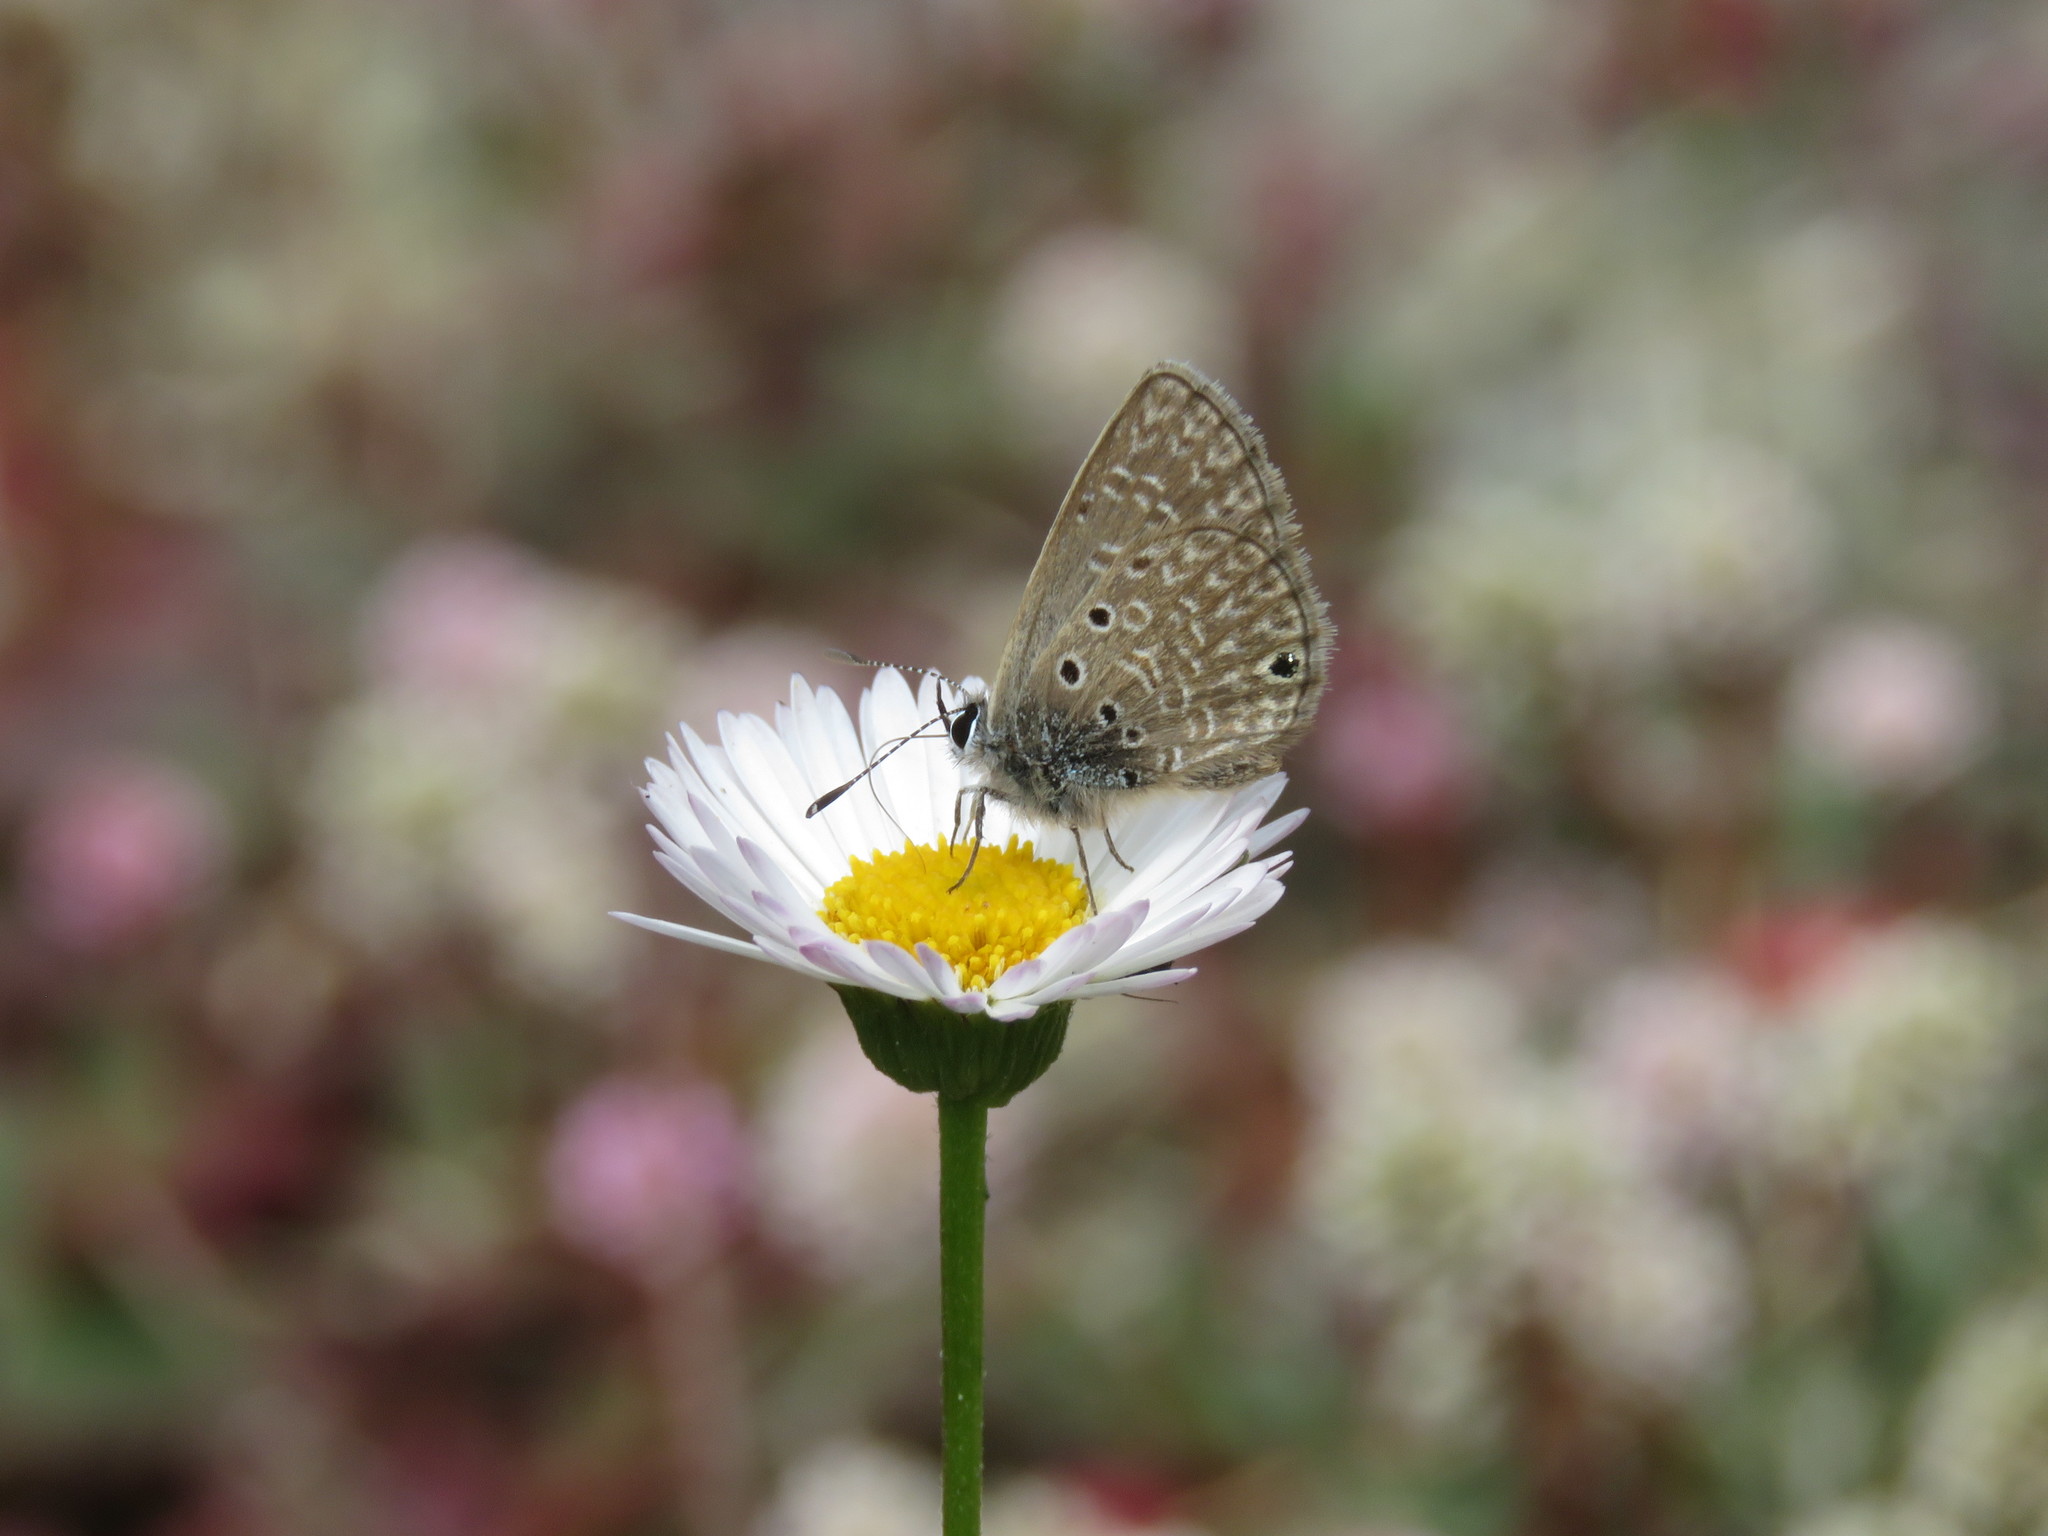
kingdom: Animalia
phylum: Arthropoda
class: Insecta
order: Lepidoptera
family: Lycaenidae
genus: Hemiargus
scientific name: Hemiargus hanno
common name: Common blue
